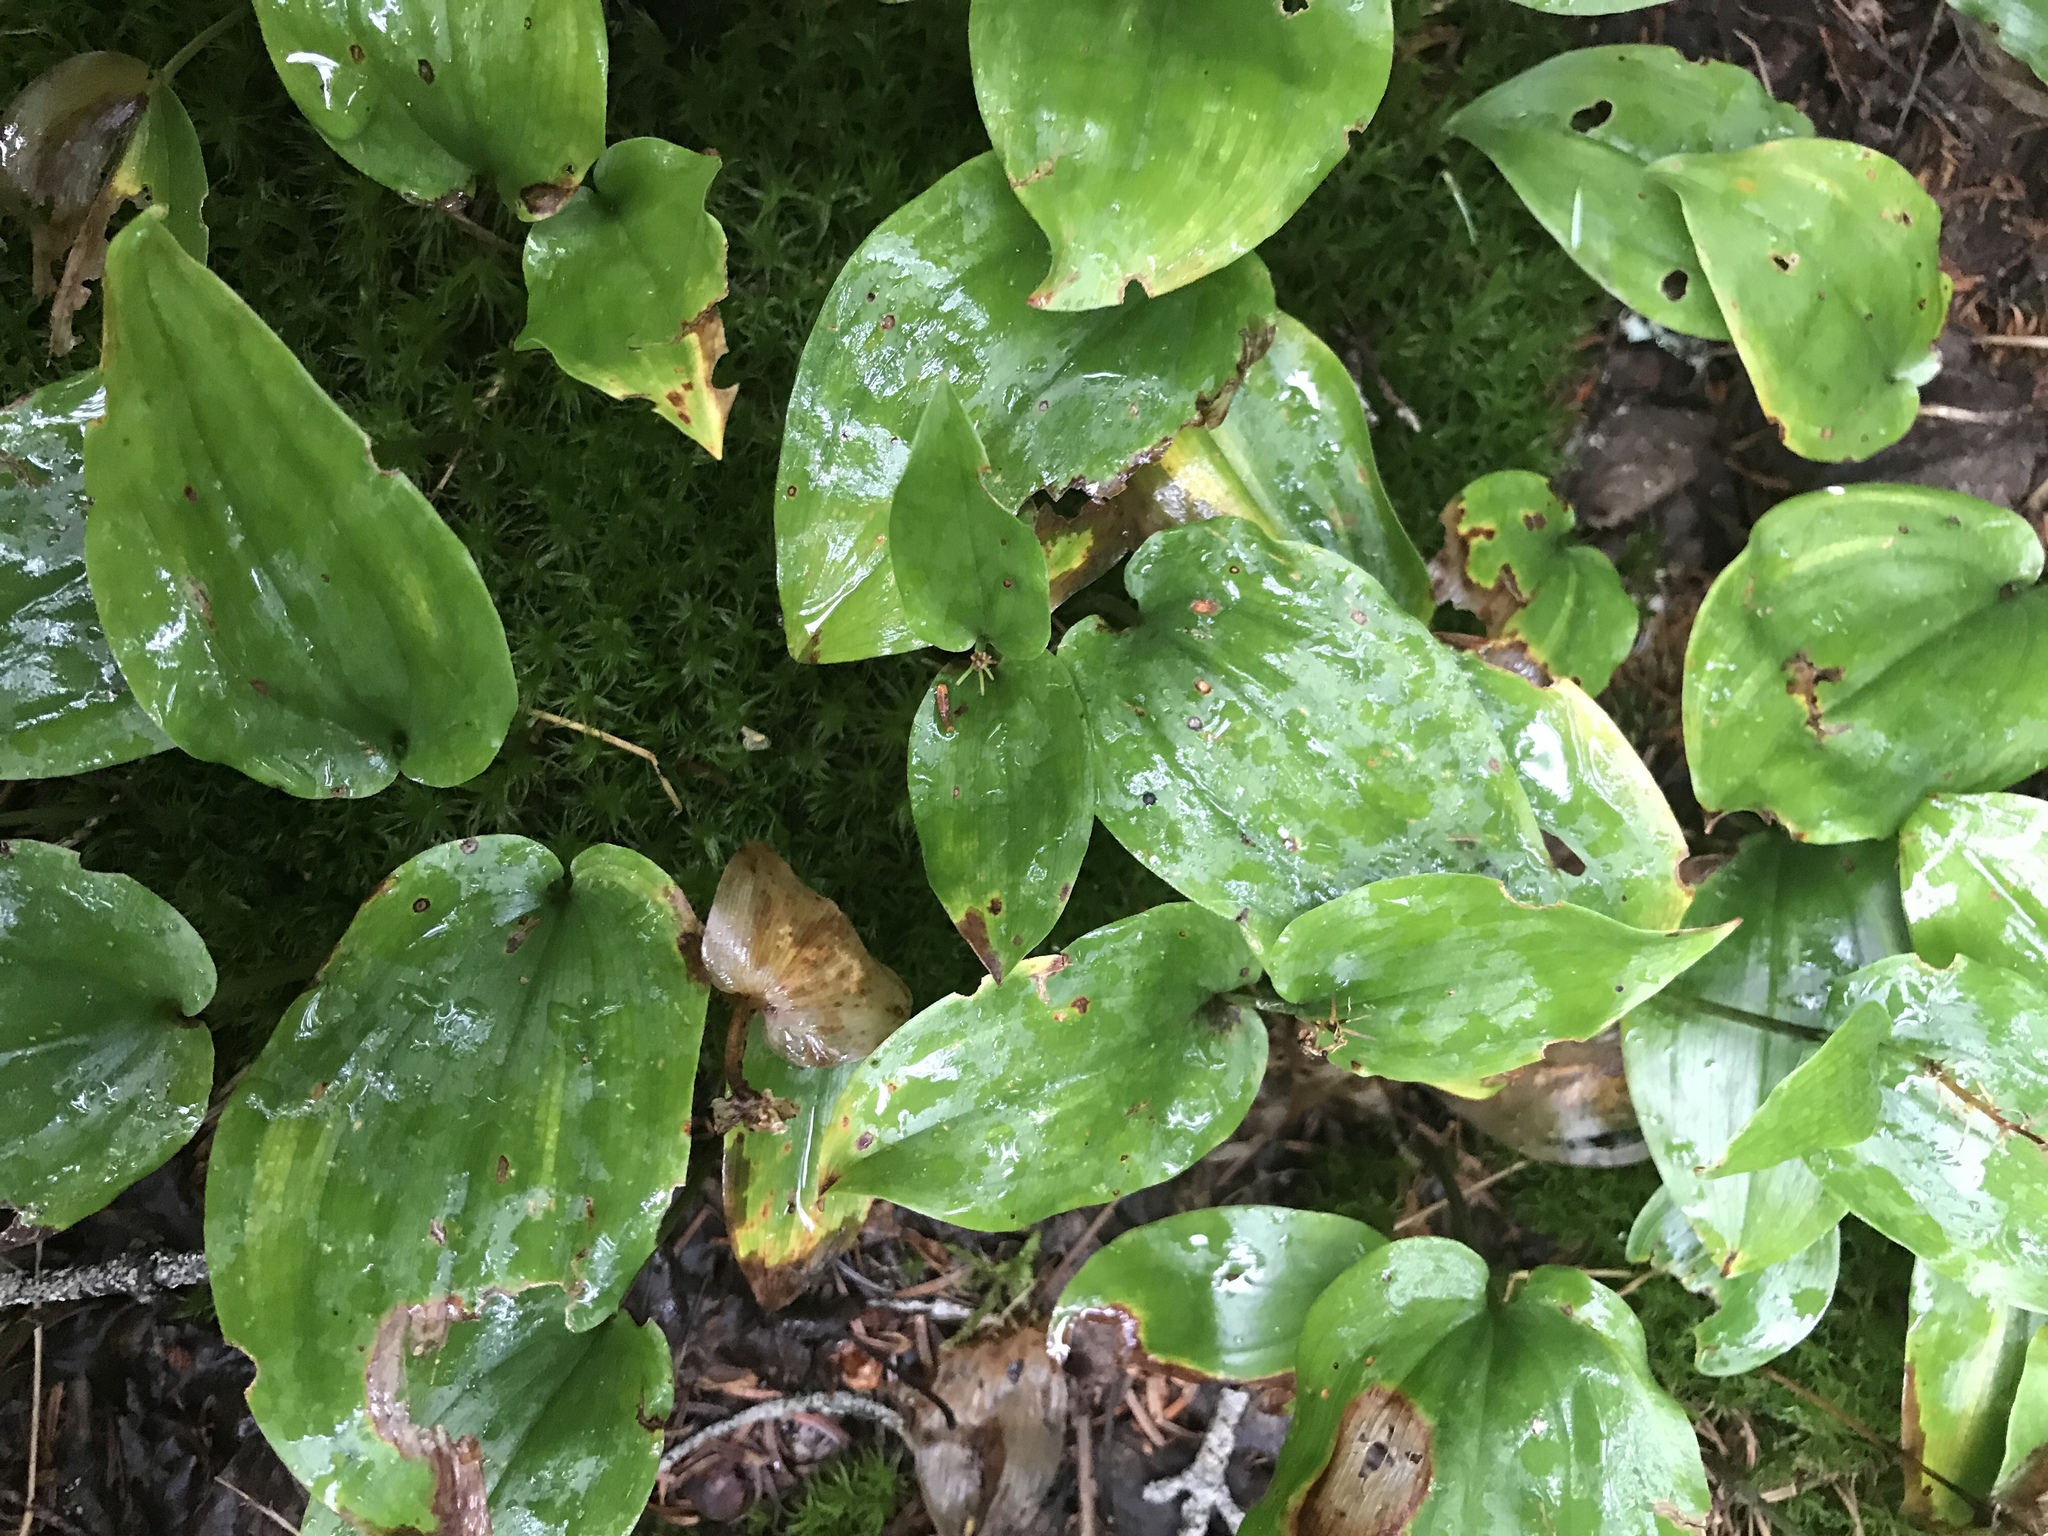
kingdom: Plantae
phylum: Tracheophyta
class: Liliopsida
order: Asparagales
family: Asparagaceae
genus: Maianthemum
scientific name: Maianthemum canadense
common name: False lily-of-the-valley
